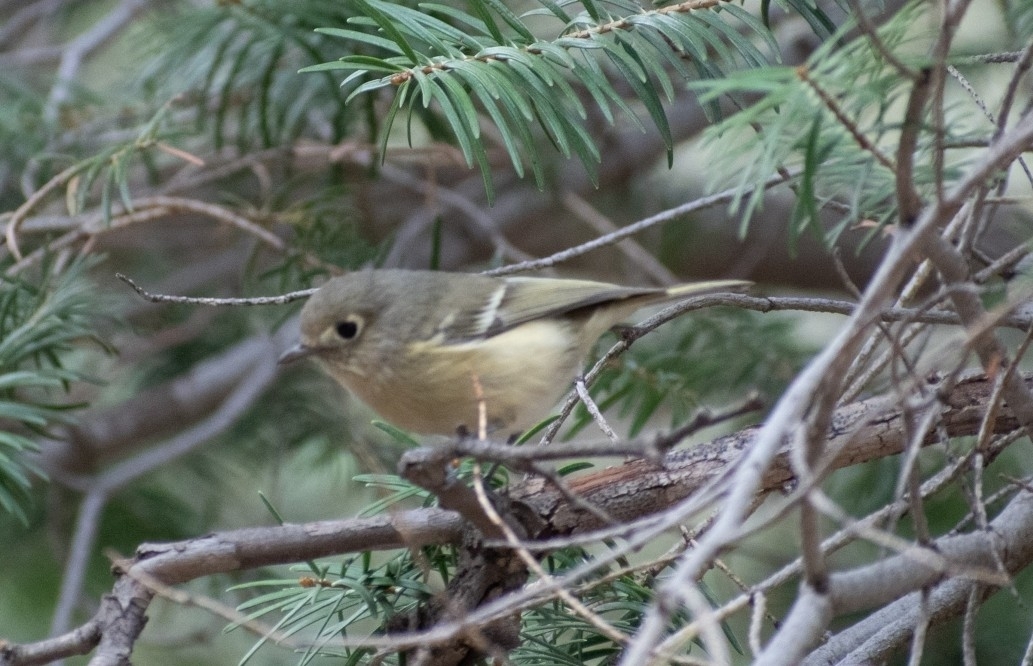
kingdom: Animalia
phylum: Chordata
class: Aves
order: Passeriformes
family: Vireonidae
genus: Vireo
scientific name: Vireo huttoni
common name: Hutton's vireo
